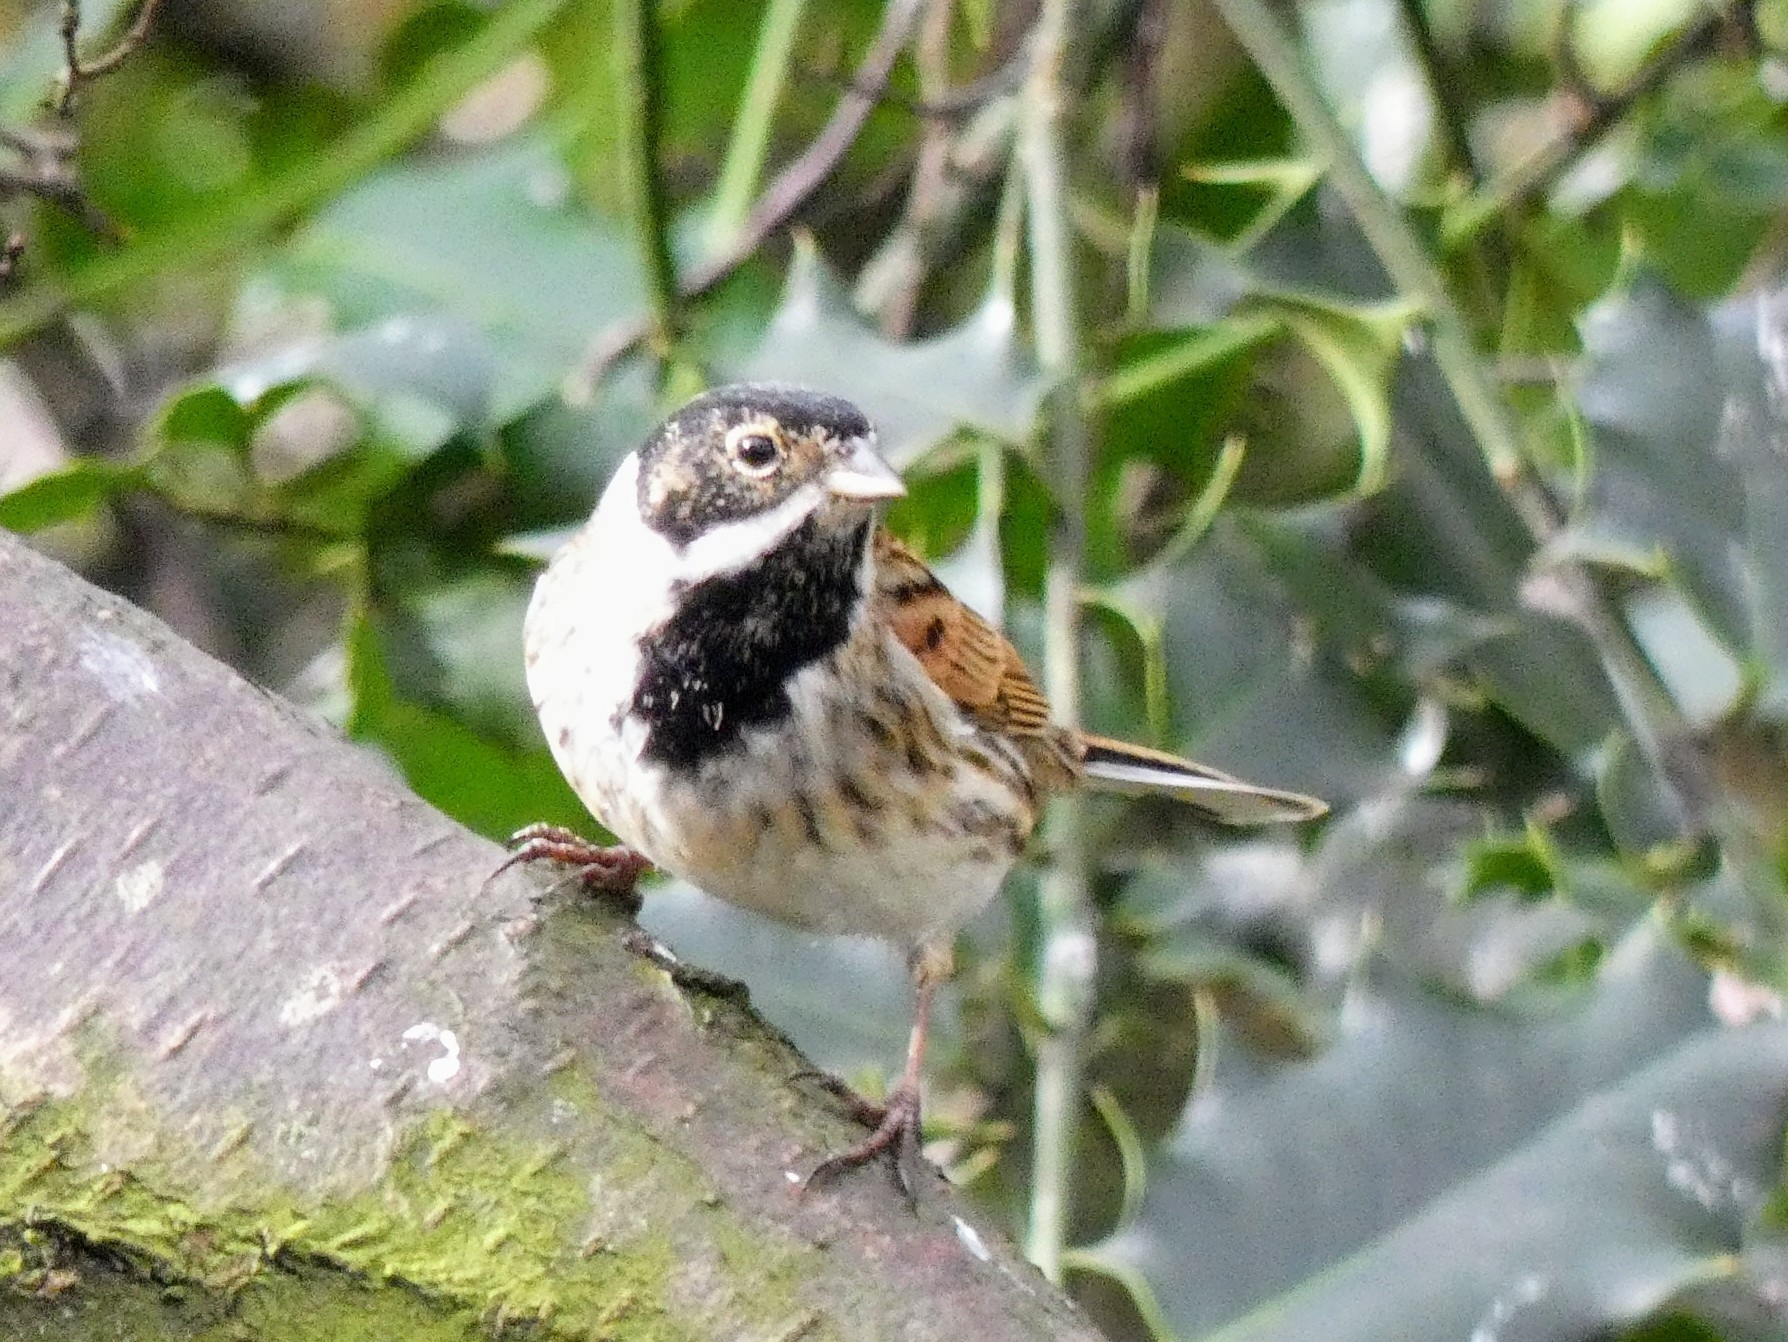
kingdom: Animalia
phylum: Chordata
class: Aves
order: Passeriformes
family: Emberizidae
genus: Emberiza
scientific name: Emberiza schoeniclus
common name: Reed bunting
